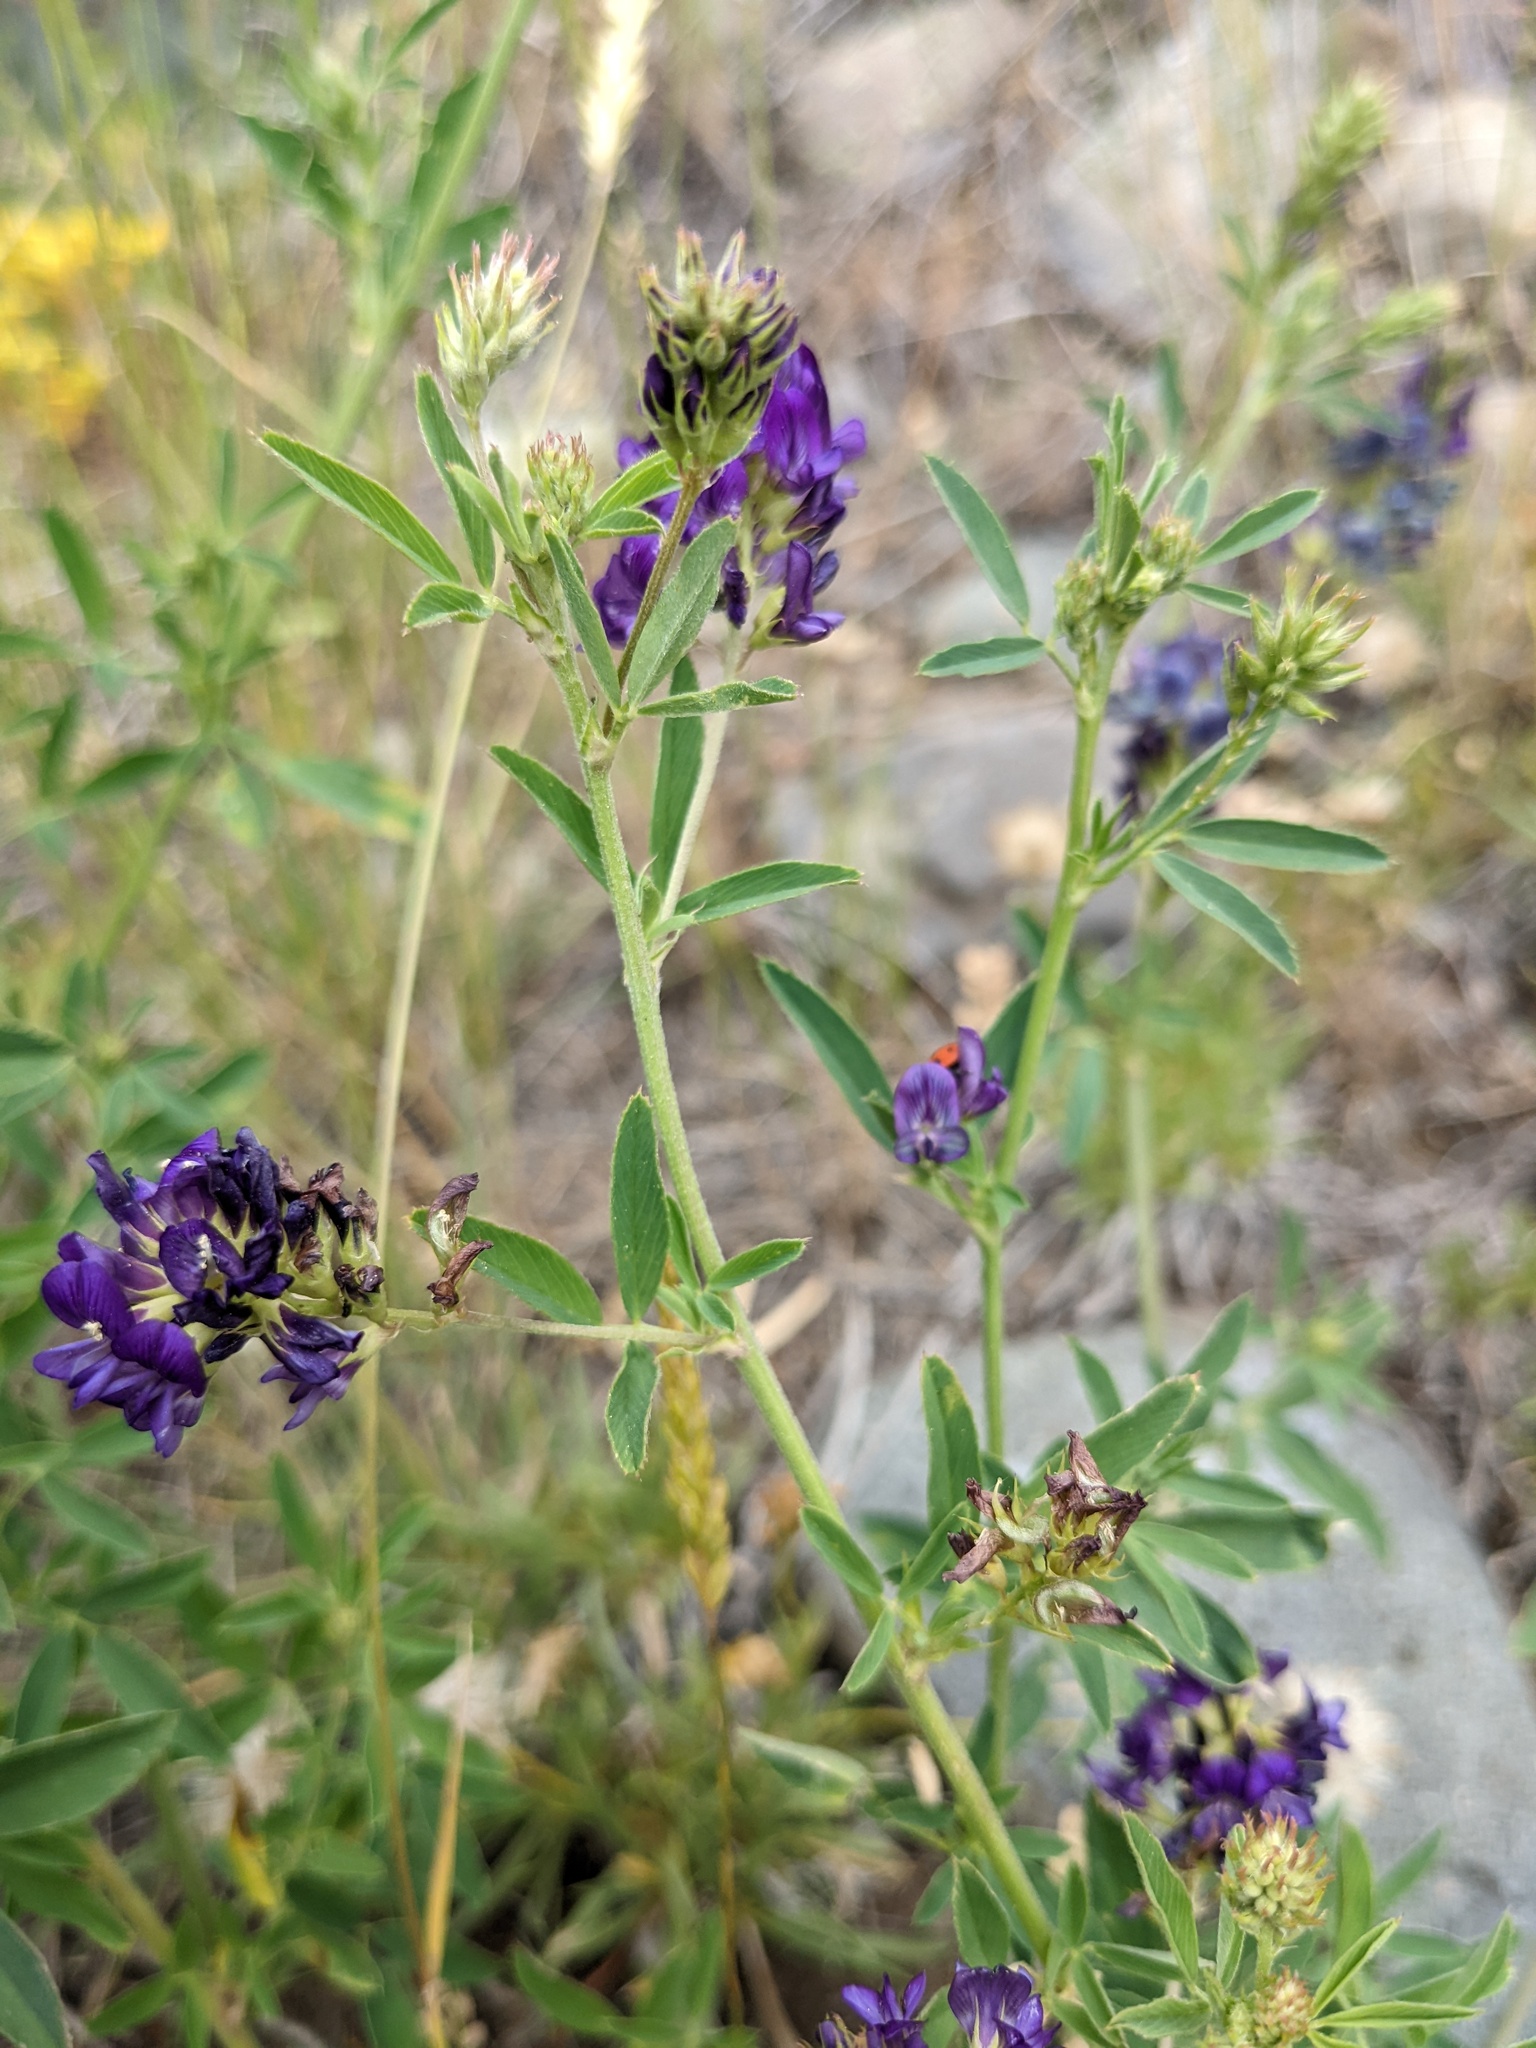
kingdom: Plantae
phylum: Tracheophyta
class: Magnoliopsida
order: Fabales
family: Fabaceae
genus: Medicago
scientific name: Medicago sativa
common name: Alfalfa
